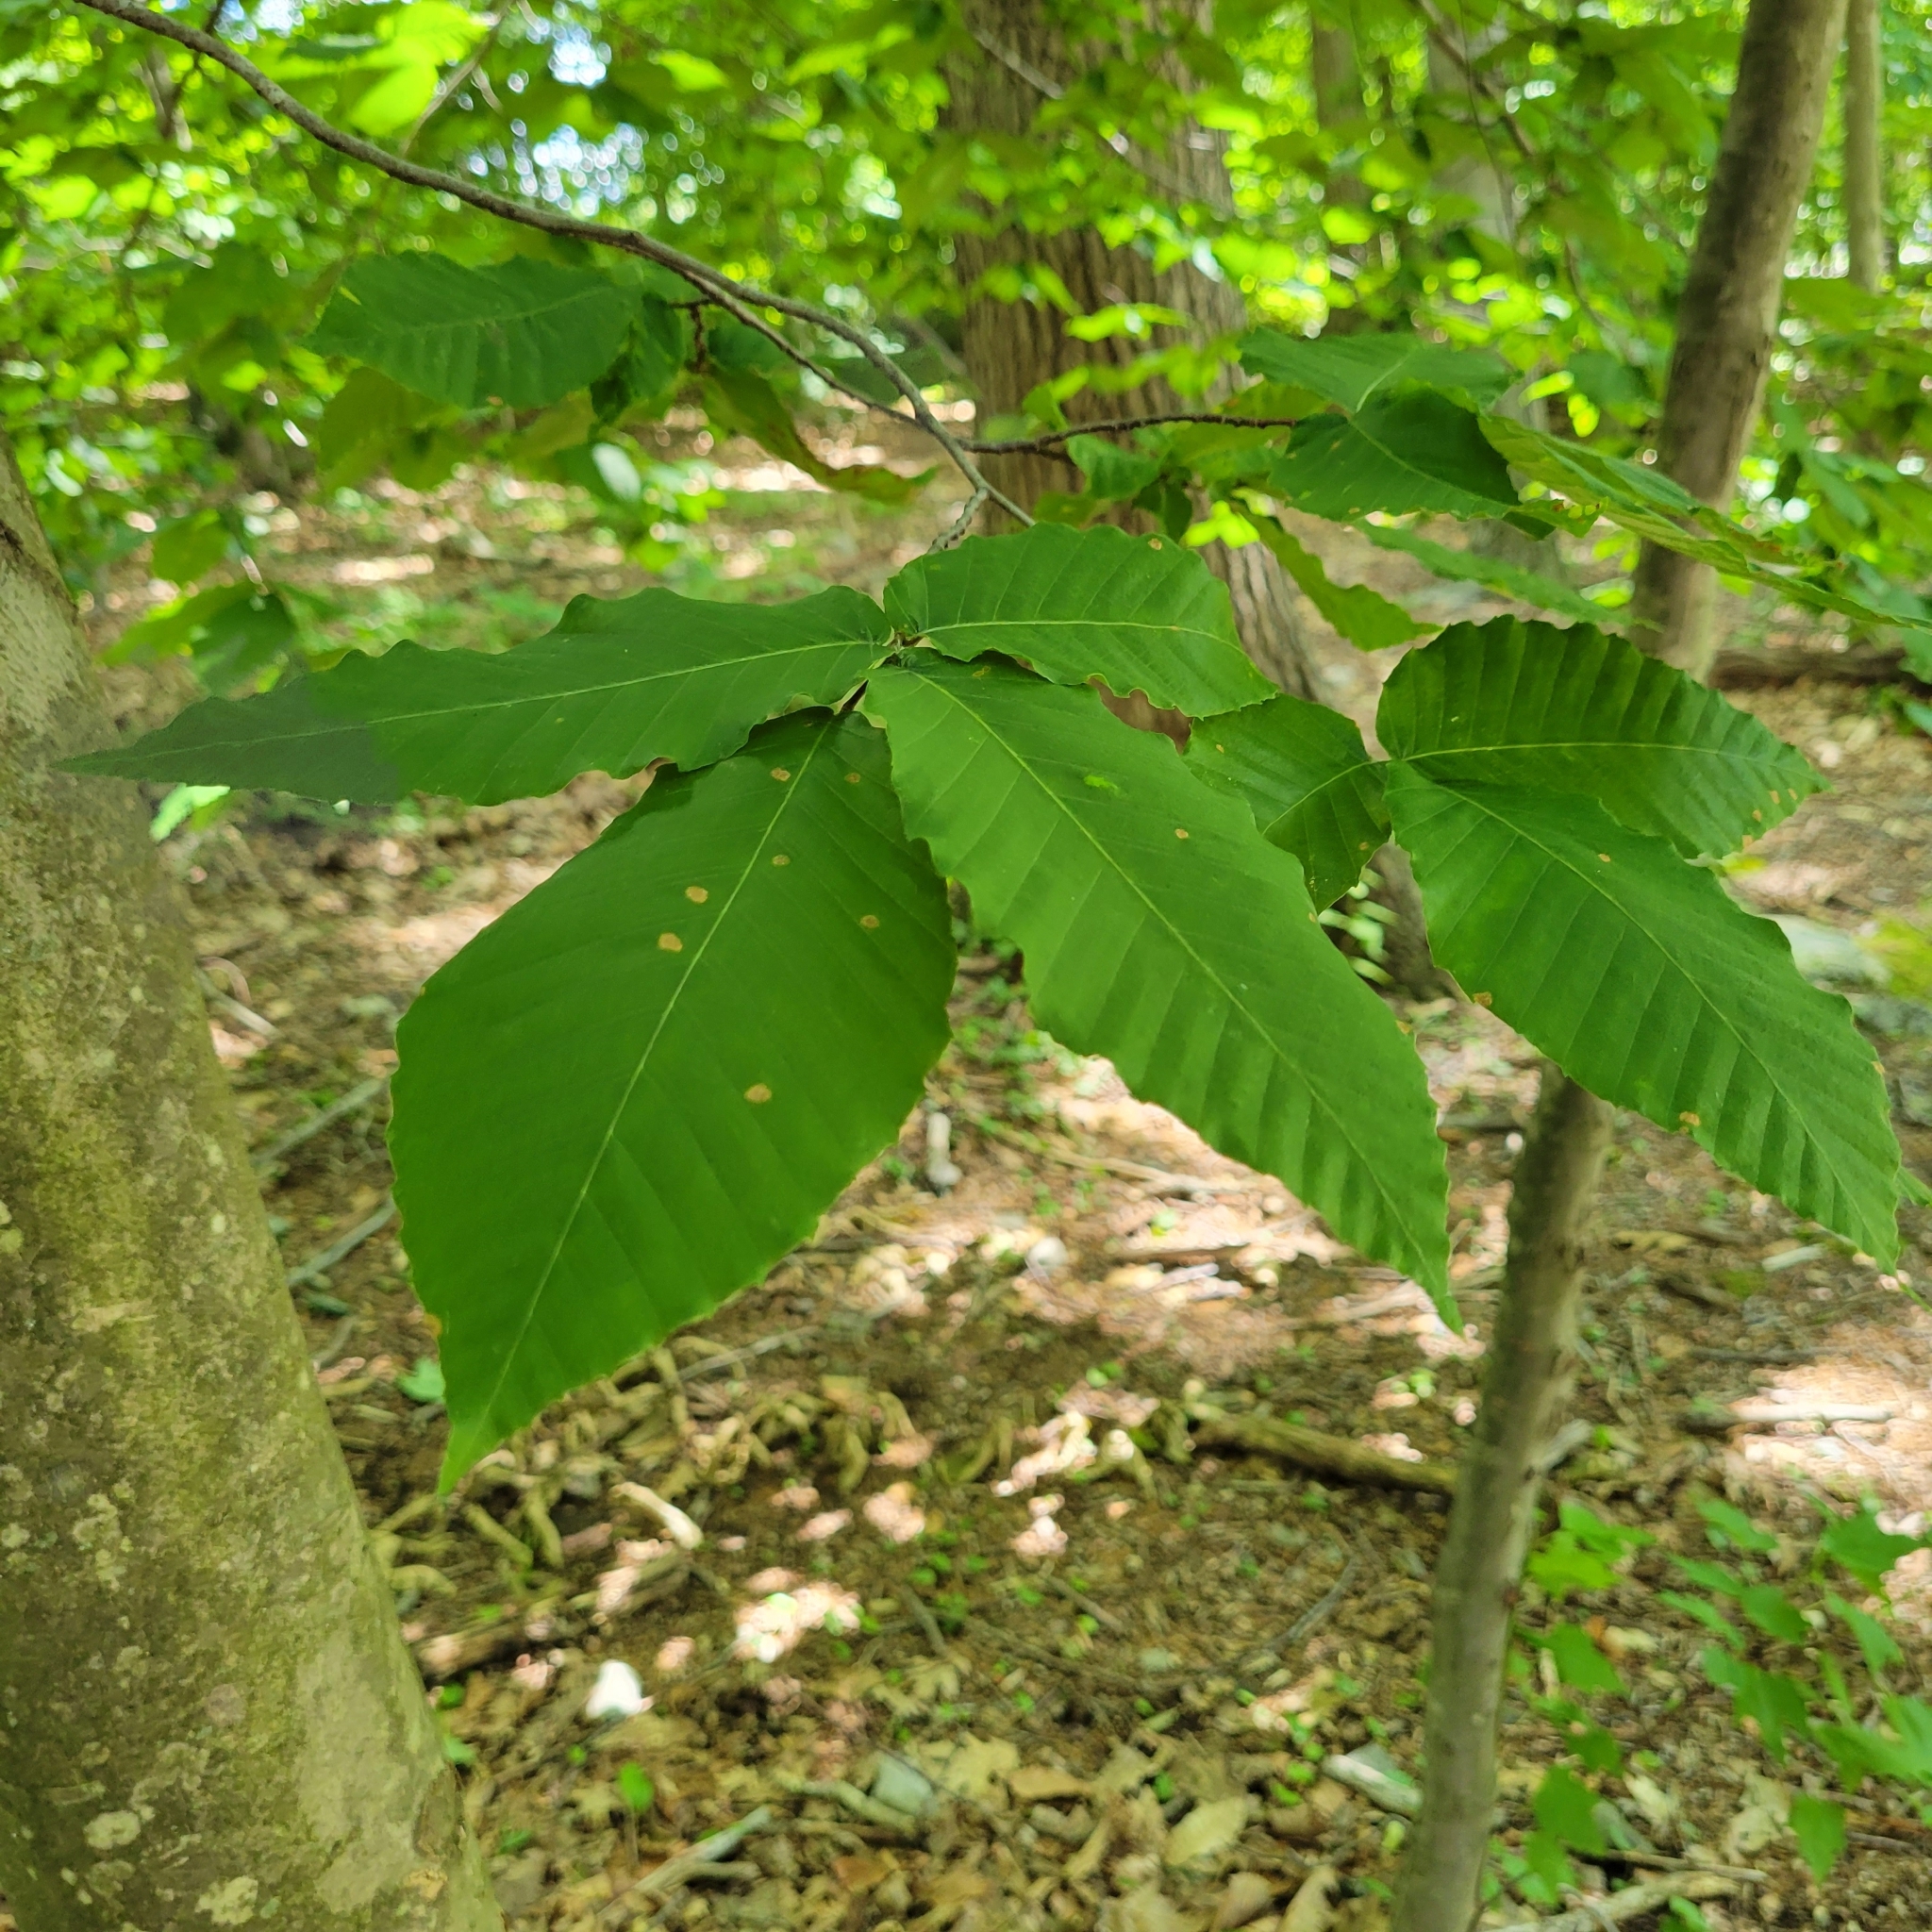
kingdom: Plantae
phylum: Tracheophyta
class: Magnoliopsida
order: Fagales
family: Fagaceae
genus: Fagus
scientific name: Fagus grandifolia
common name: American beech
